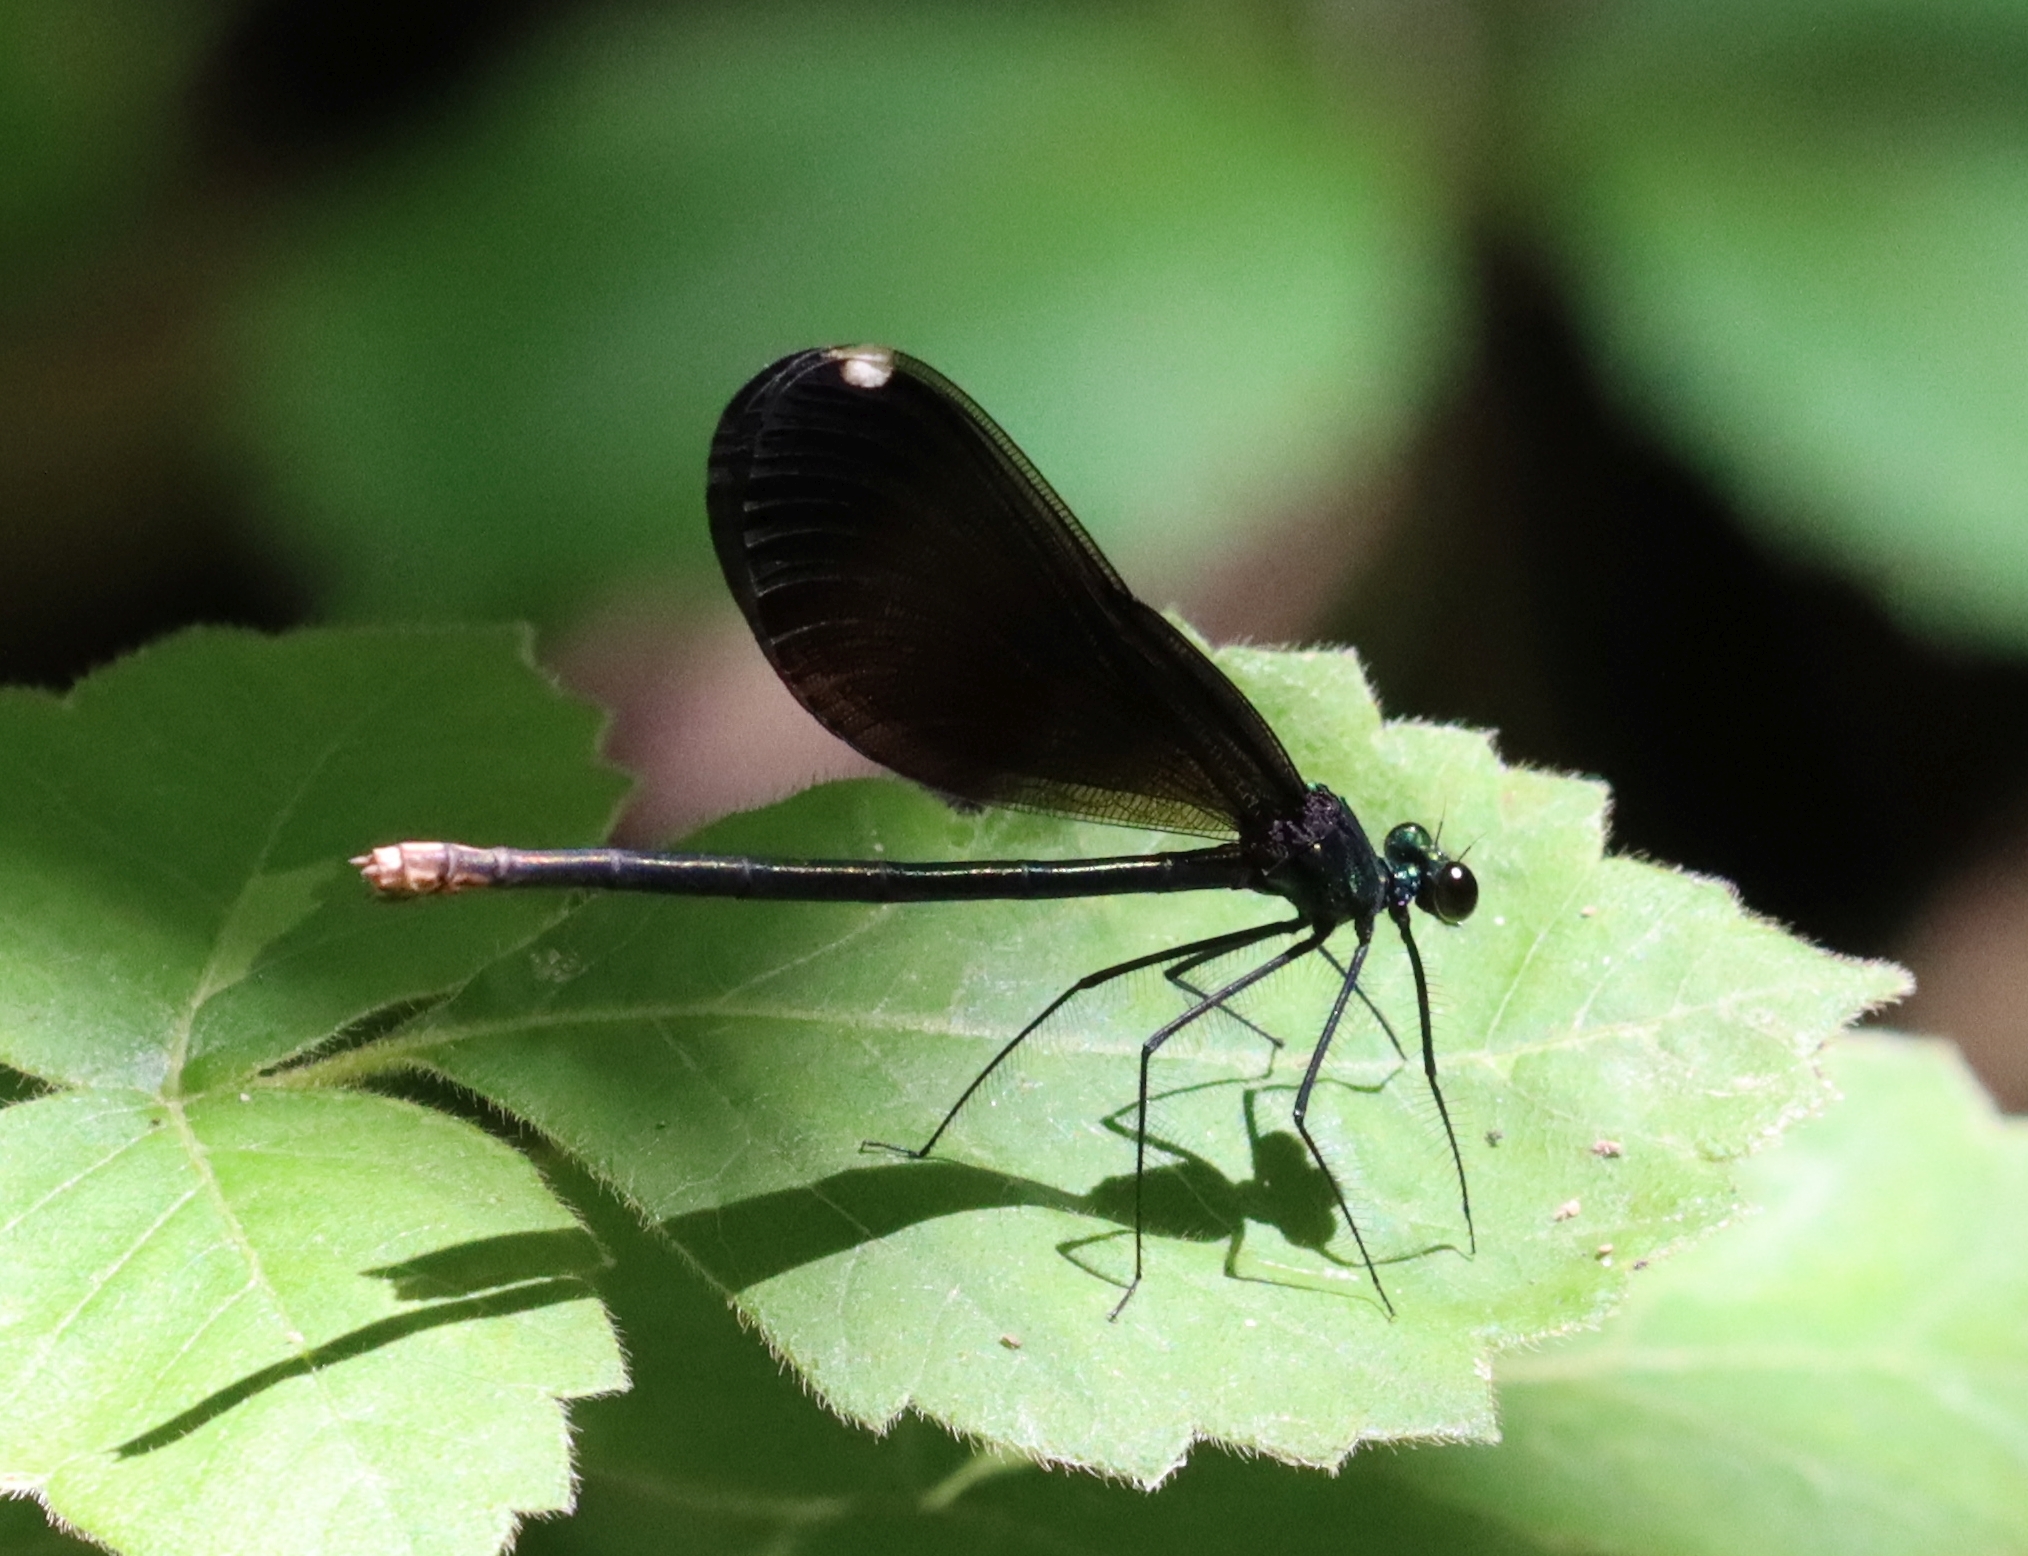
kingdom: Animalia
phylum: Arthropoda
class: Insecta
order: Odonata
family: Calopterygidae
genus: Calopteryx
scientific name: Calopteryx maculata
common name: Ebony jewelwing
